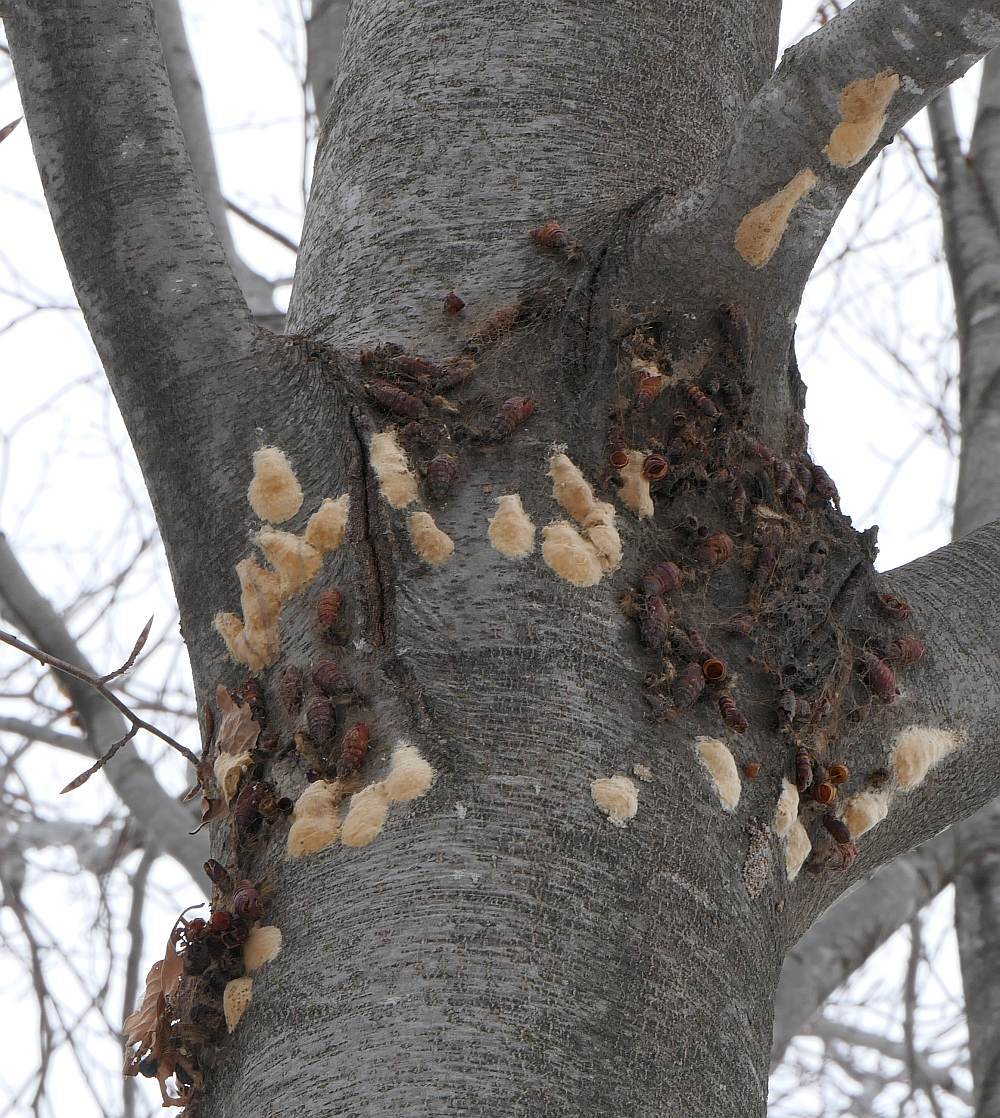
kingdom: Animalia
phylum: Arthropoda
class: Insecta
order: Lepidoptera
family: Erebidae
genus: Lymantria
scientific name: Lymantria dispar
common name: Gypsy moth
